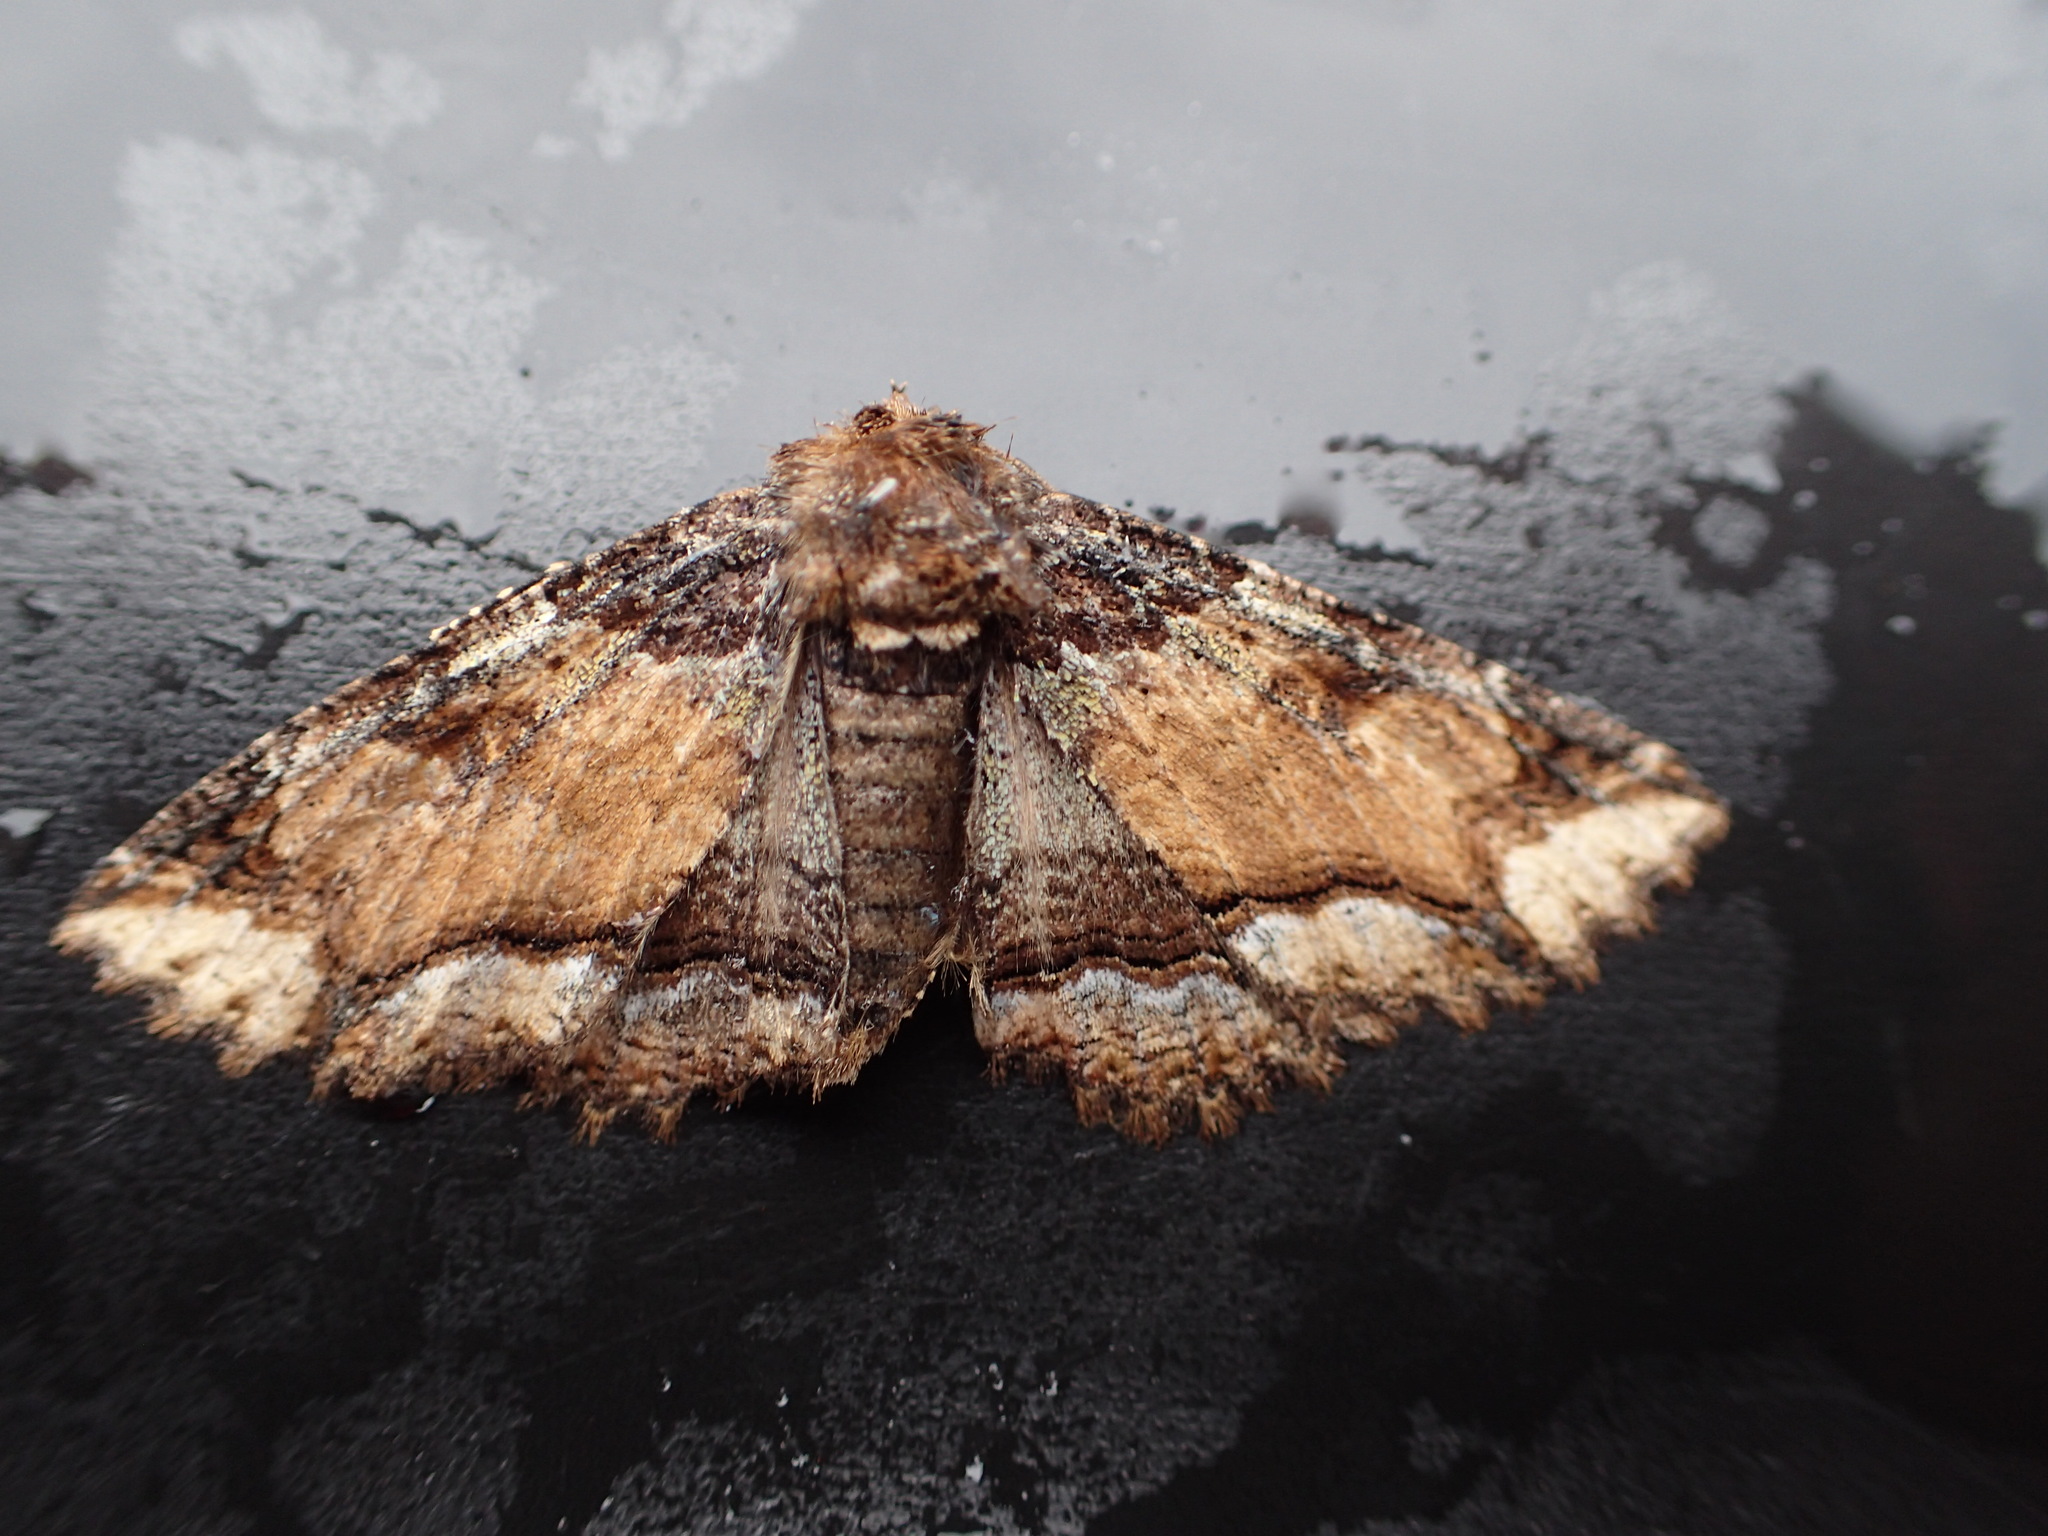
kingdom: Animalia
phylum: Arthropoda
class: Insecta
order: Lepidoptera
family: Erebidae
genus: Zale
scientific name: Zale minerea
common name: Colorful zale moth
